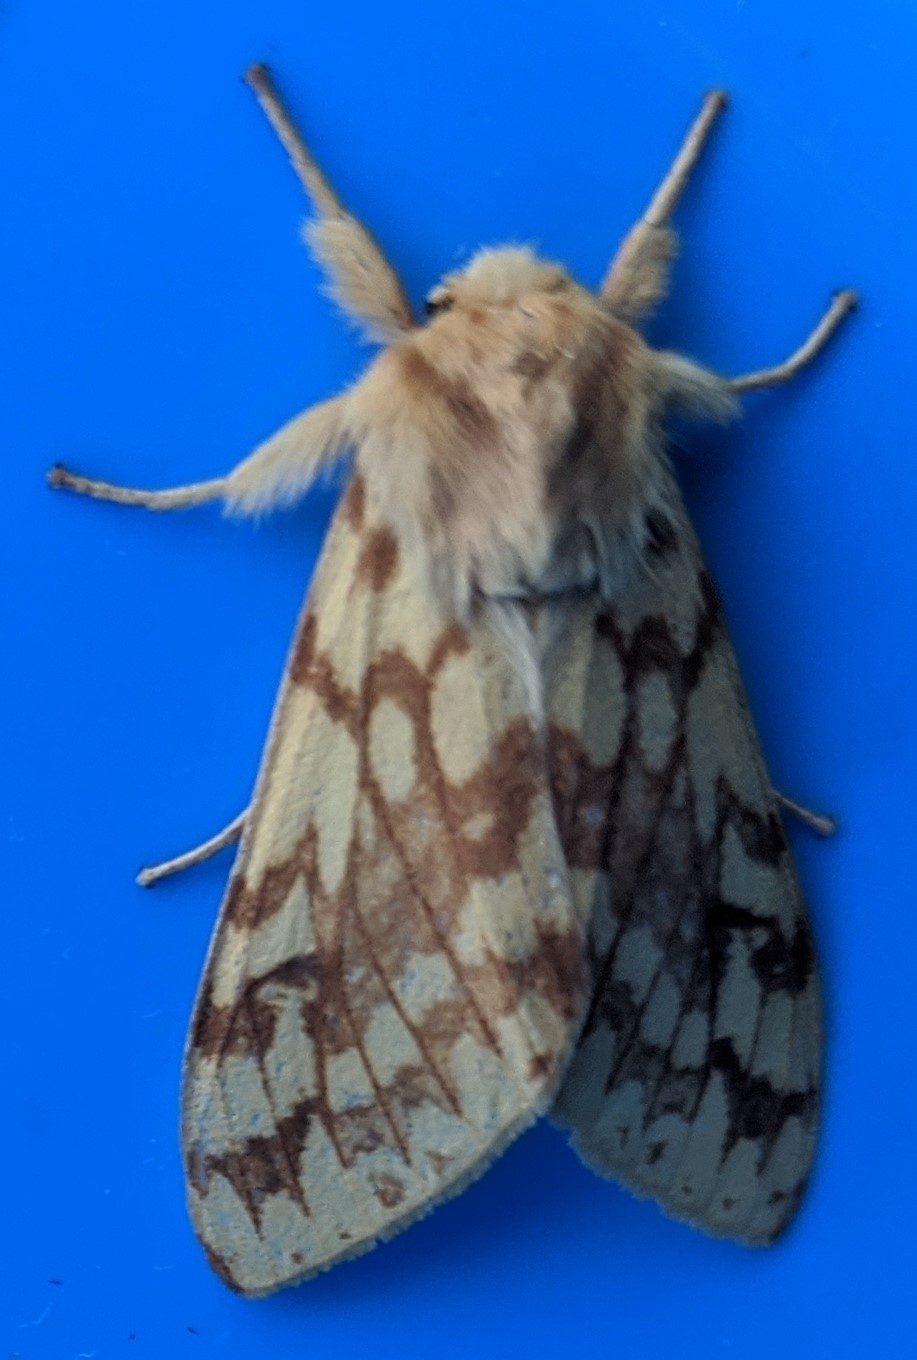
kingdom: Animalia
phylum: Arthropoda
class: Insecta
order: Lepidoptera
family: Erebidae
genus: Lophocampa
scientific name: Lophocampa maculata
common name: Spotted tussock moth
